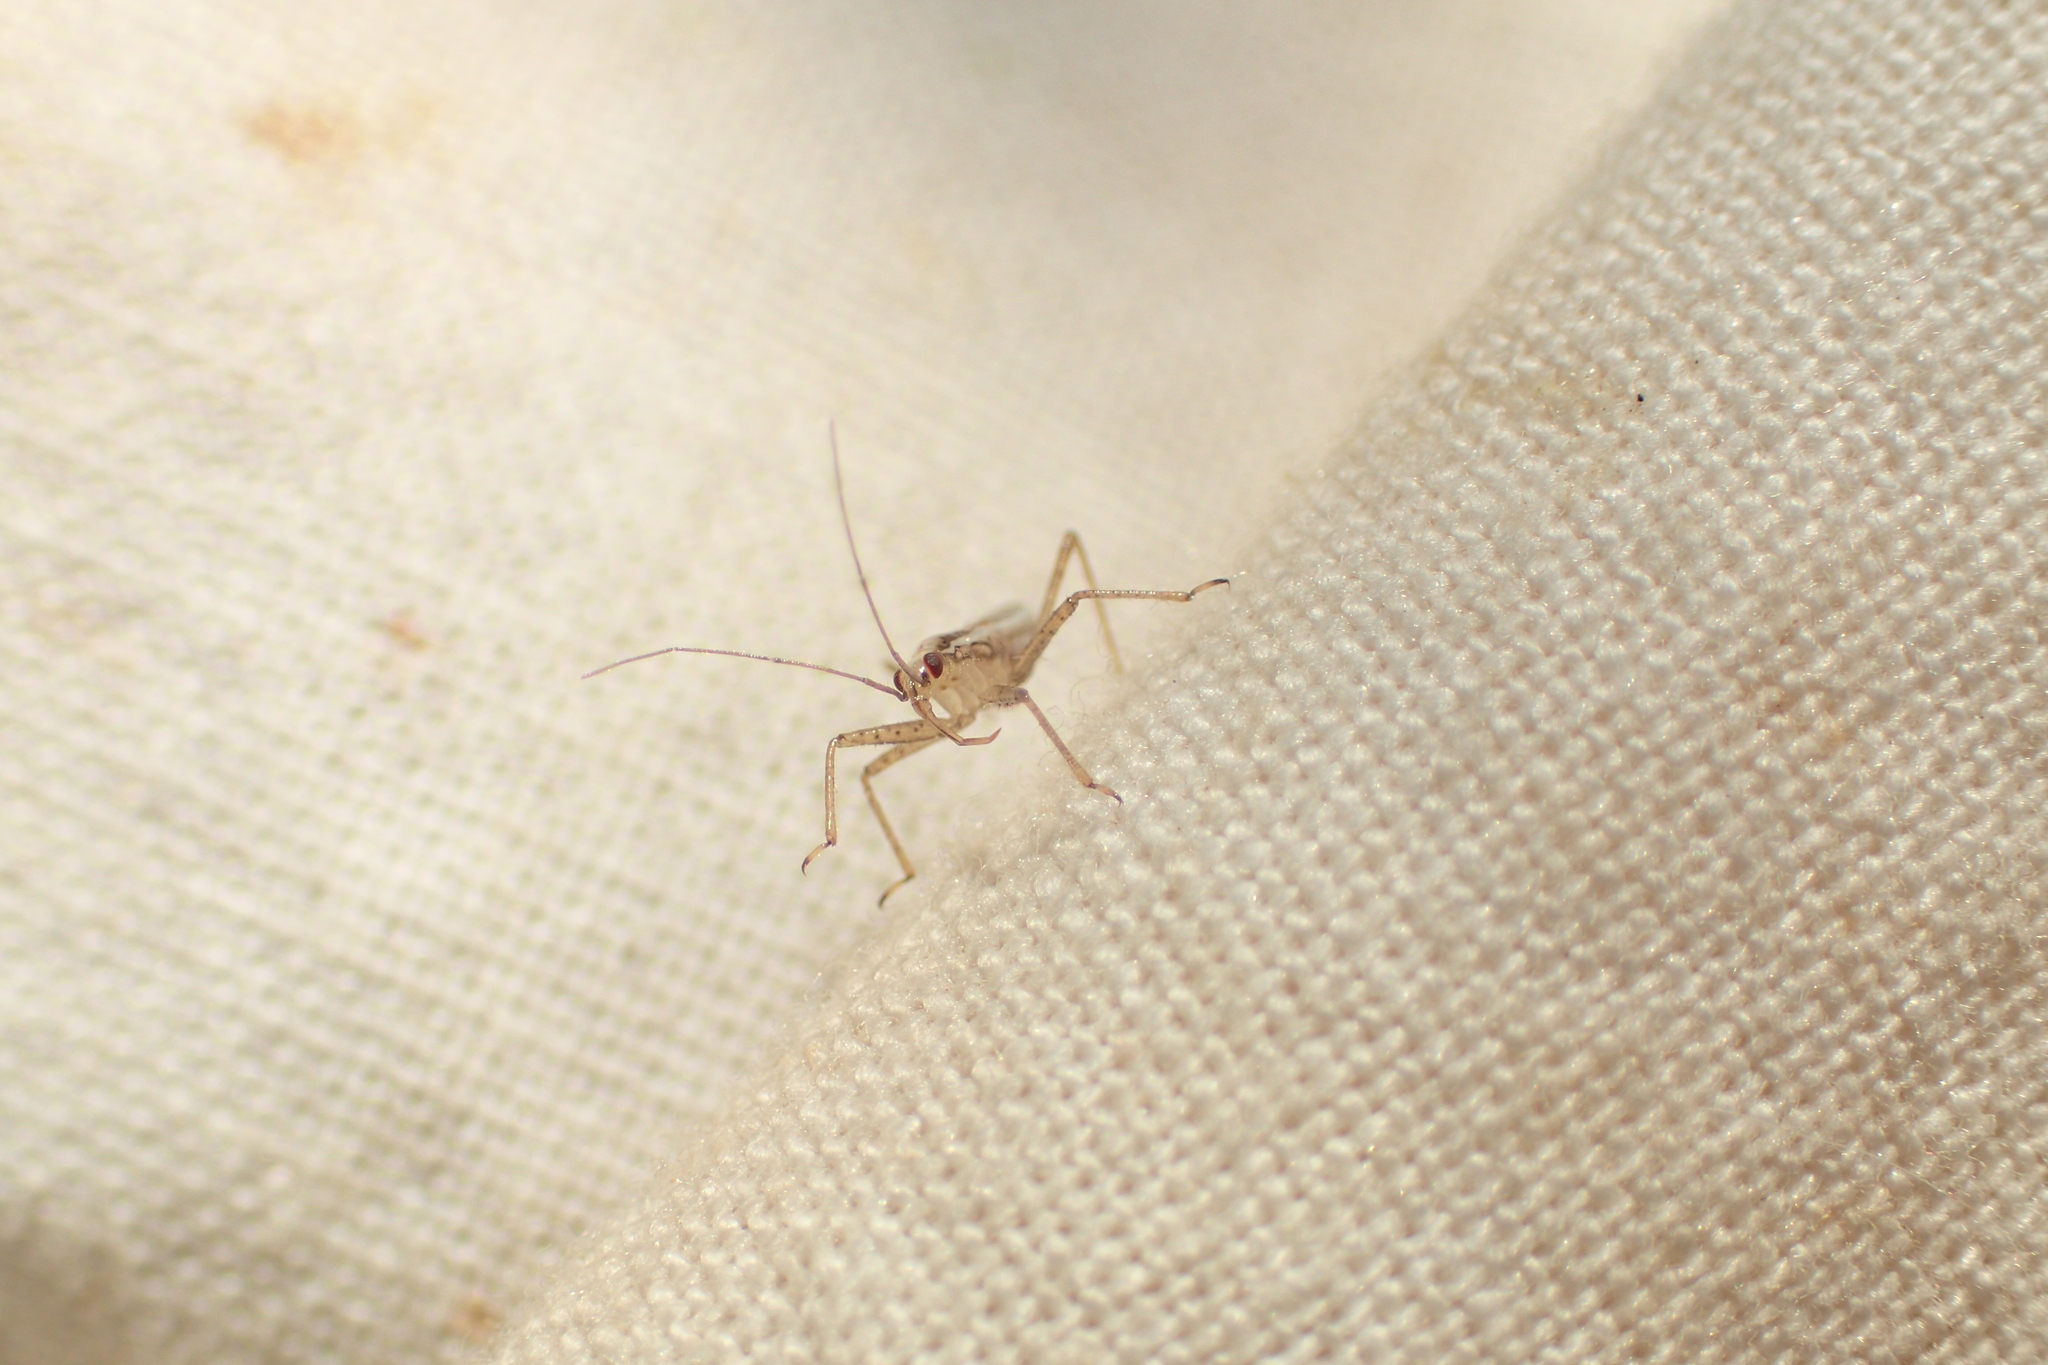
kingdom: Animalia
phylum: Arthropoda
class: Insecta
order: Hemiptera
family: Nabidae
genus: Nabis
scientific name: Nabis limbatus
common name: Marsh damselbug
